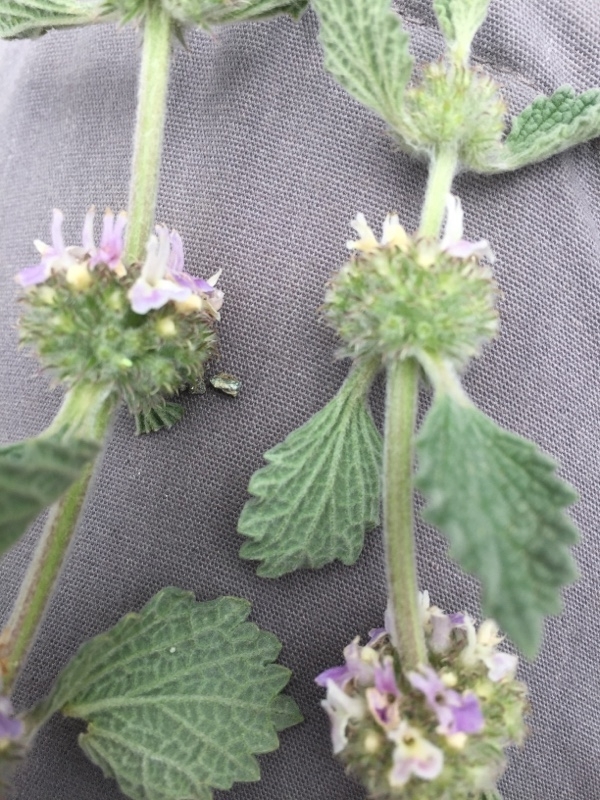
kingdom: Plantae
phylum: Tracheophyta
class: Magnoliopsida
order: Lamiales
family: Lamiaceae
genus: Marrubium
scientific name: Marrubium vulgare
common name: Horehound
